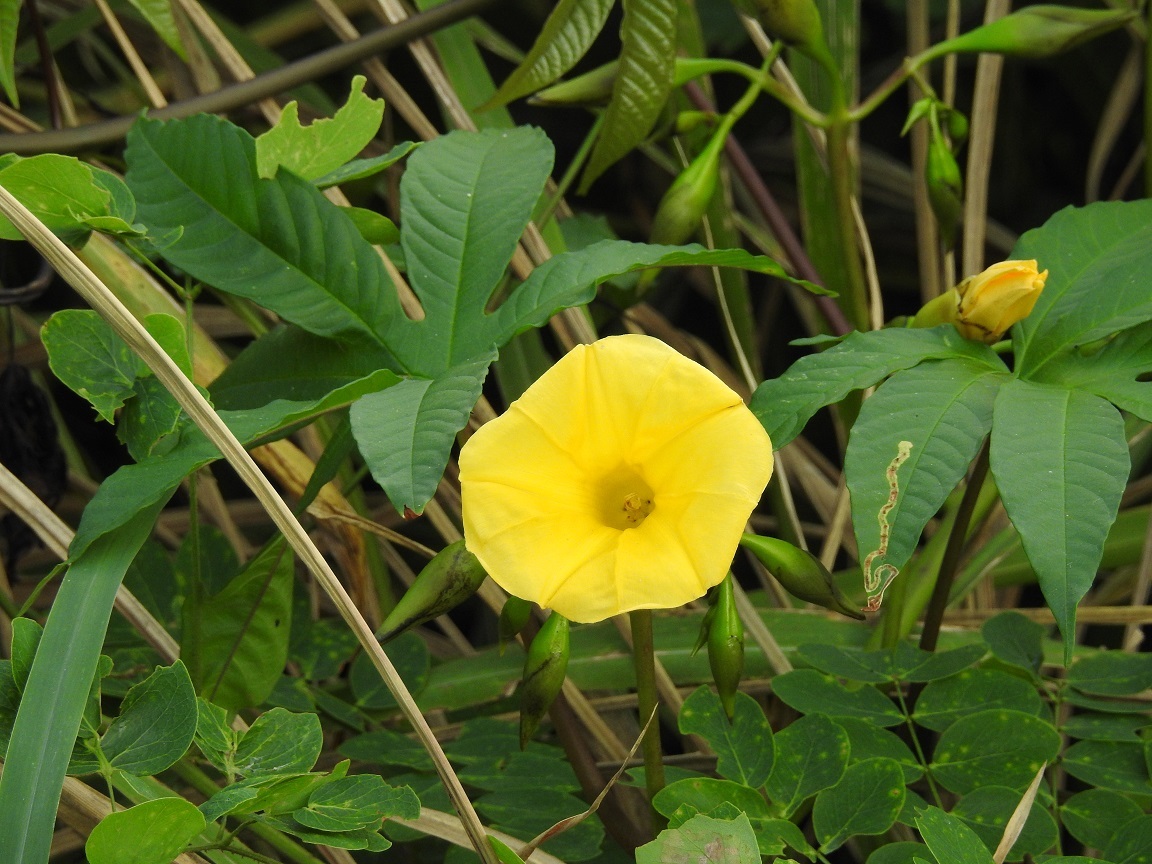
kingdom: Plantae
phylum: Tracheophyta
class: Magnoliopsida
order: Solanales
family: Convolvulaceae
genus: Distimake
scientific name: Distimake tuberosus
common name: Spanish arborvine
